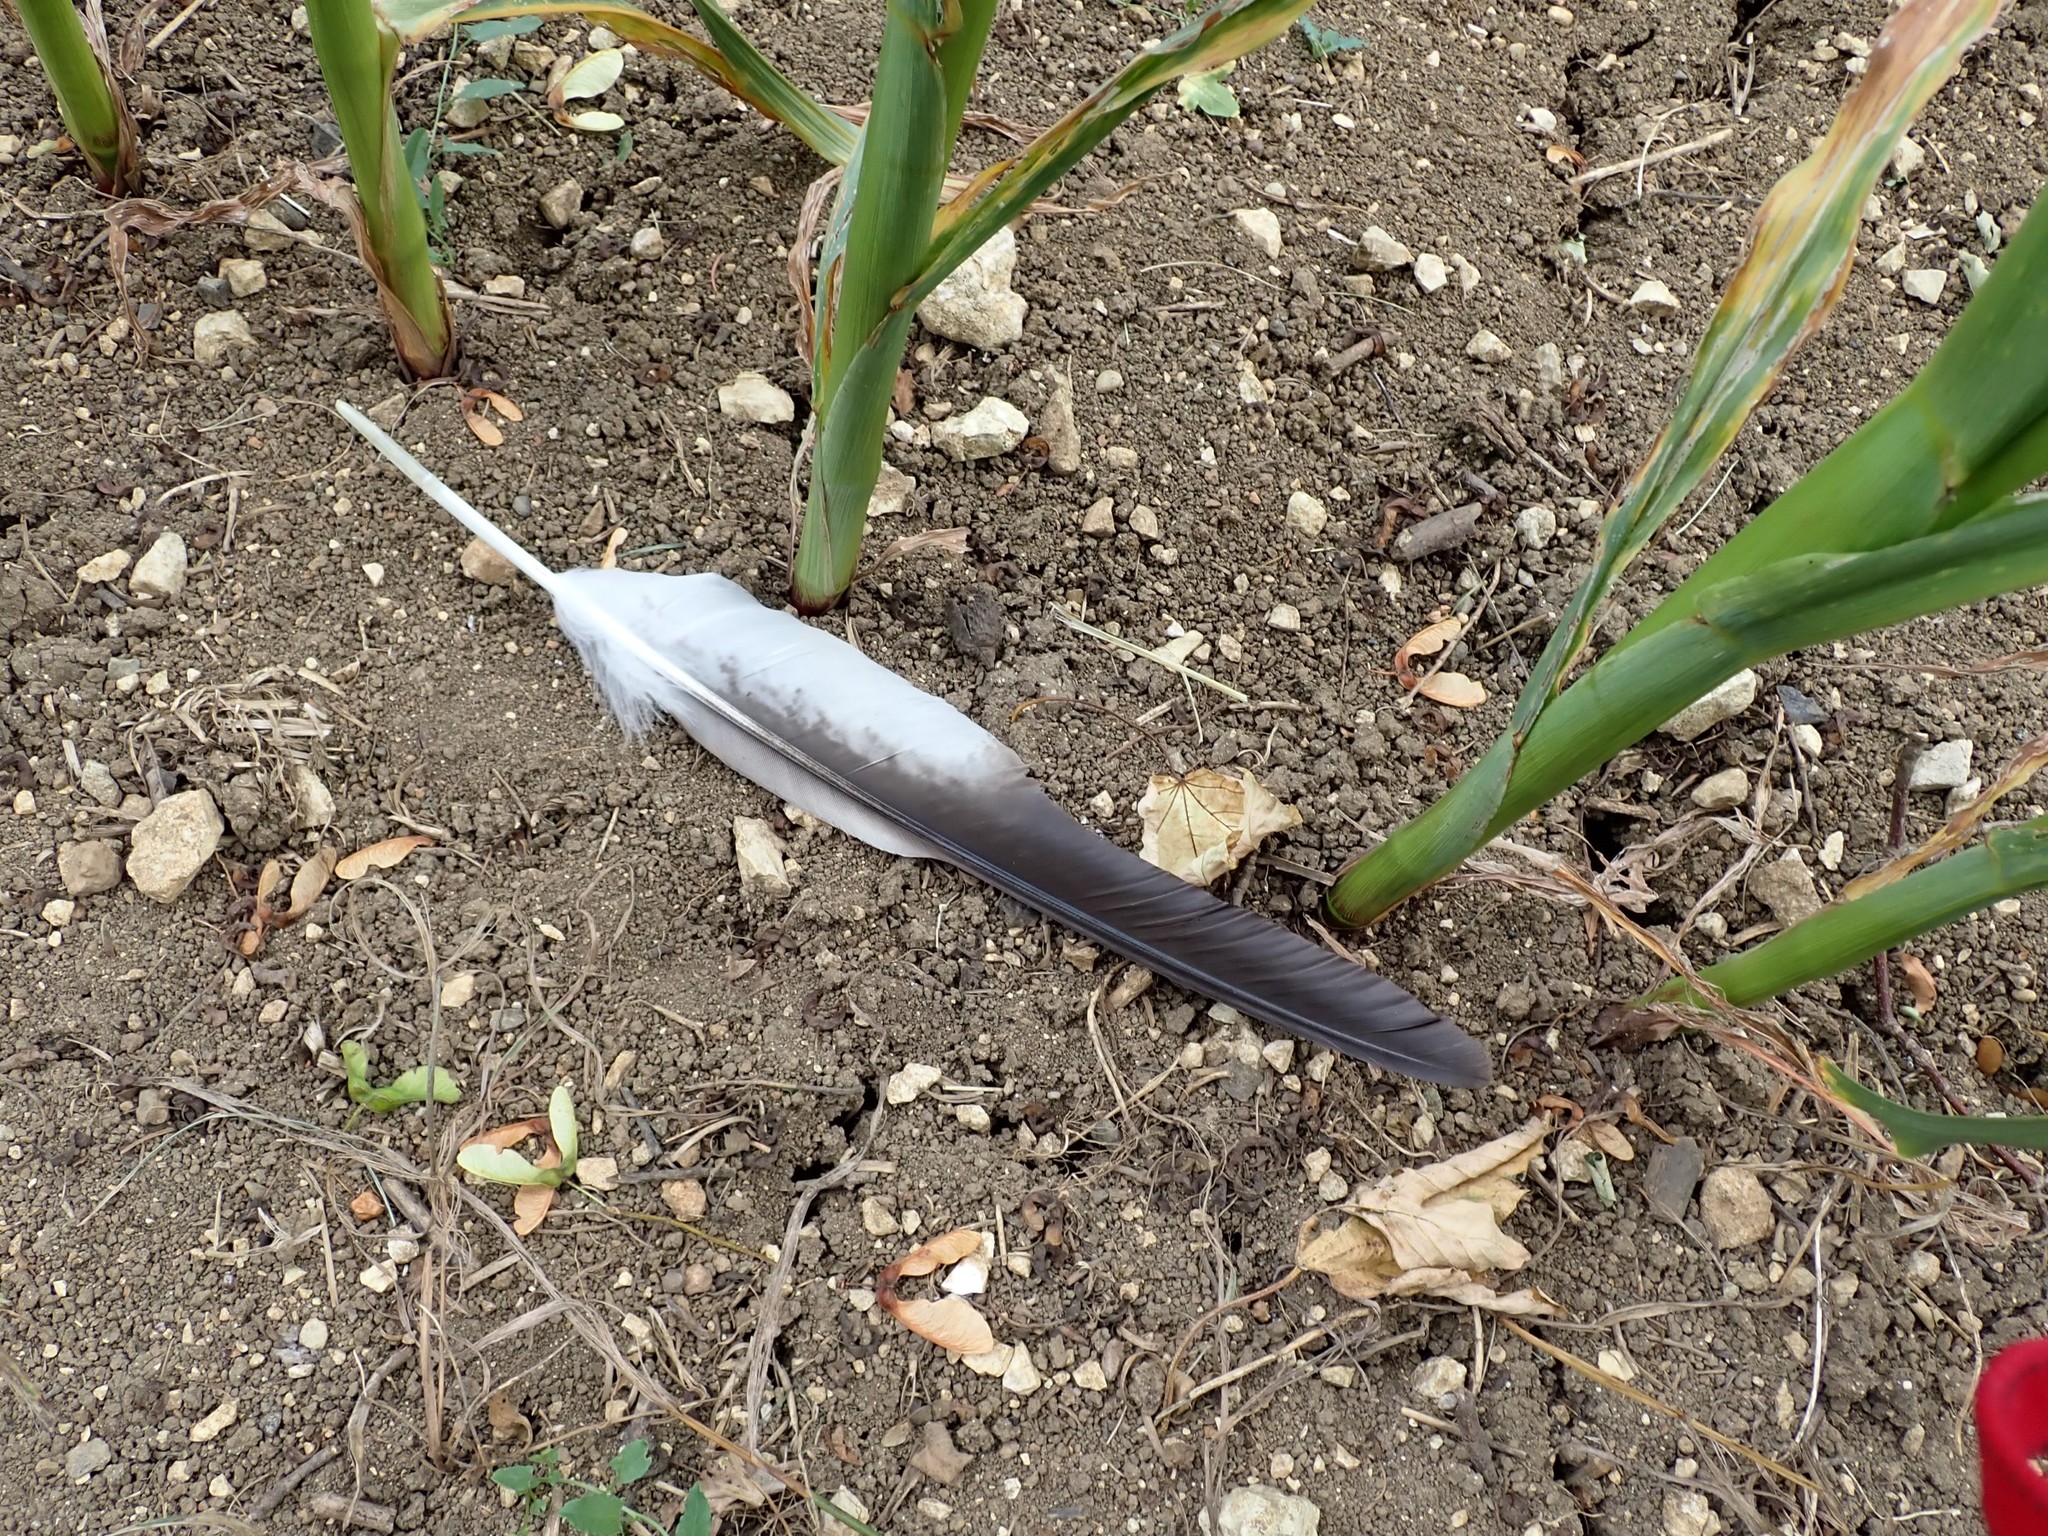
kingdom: Animalia
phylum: Chordata
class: Aves
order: Accipitriformes
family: Accipitridae
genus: Milvus
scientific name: Milvus milvus
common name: Red kite
